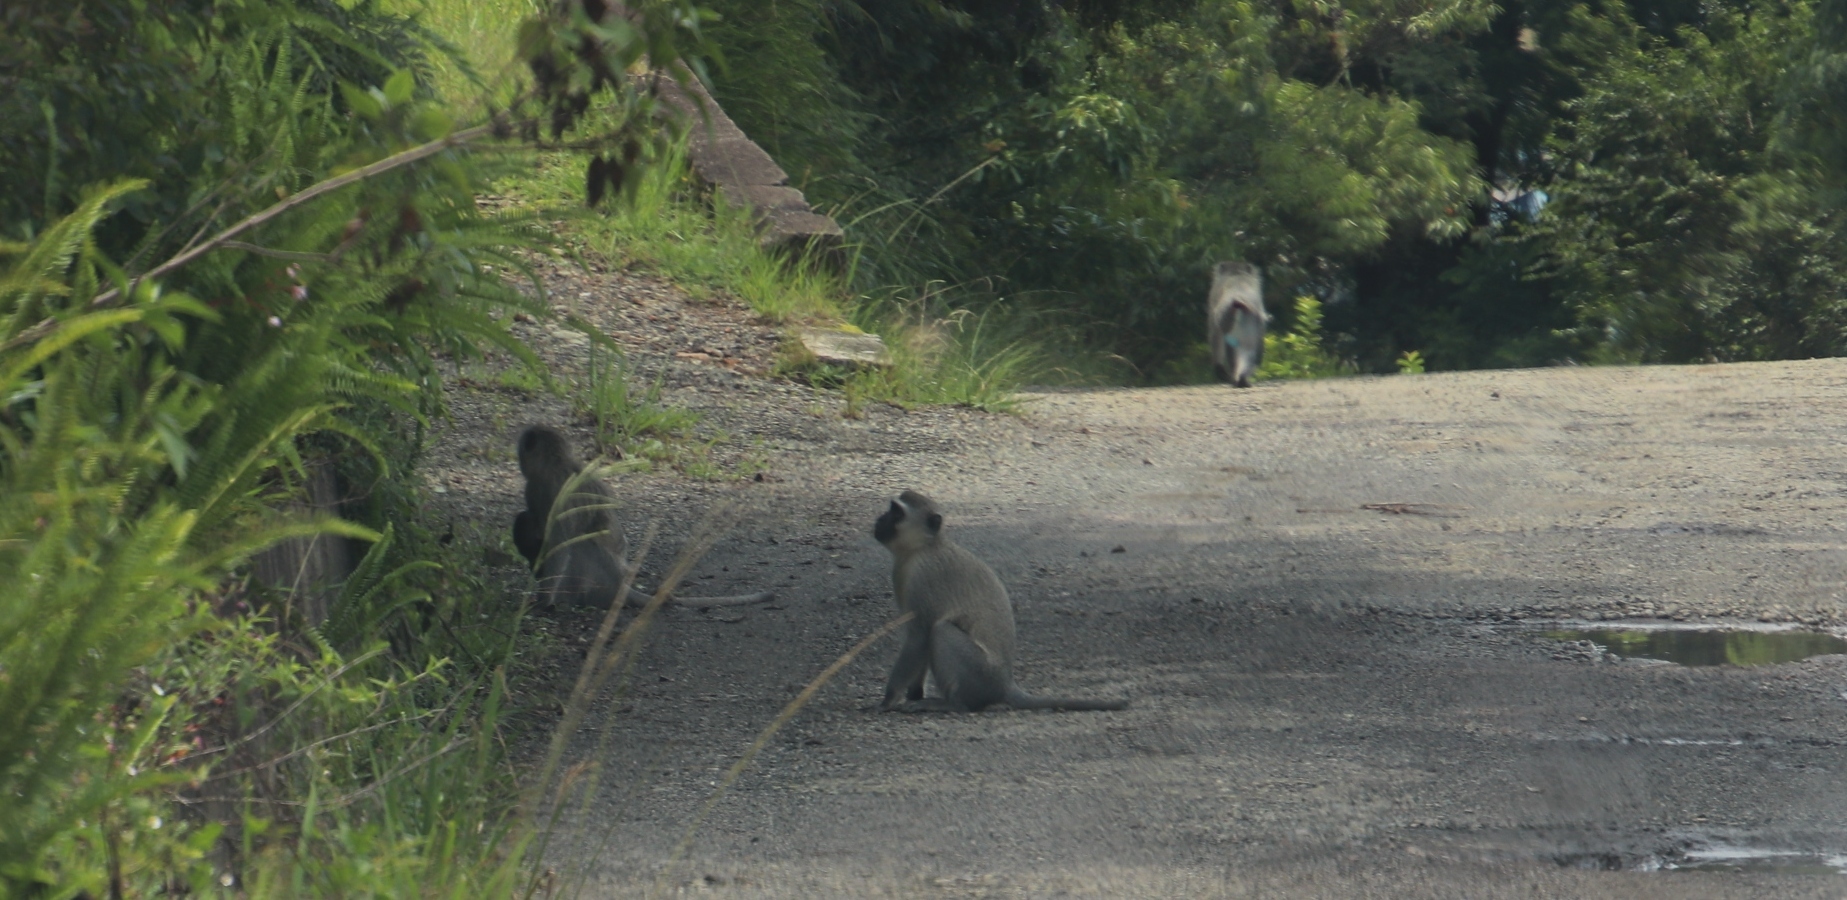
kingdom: Animalia
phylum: Chordata
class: Mammalia
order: Primates
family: Cercopithecidae
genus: Chlorocebus
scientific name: Chlorocebus pygerythrus
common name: Vervet monkey
